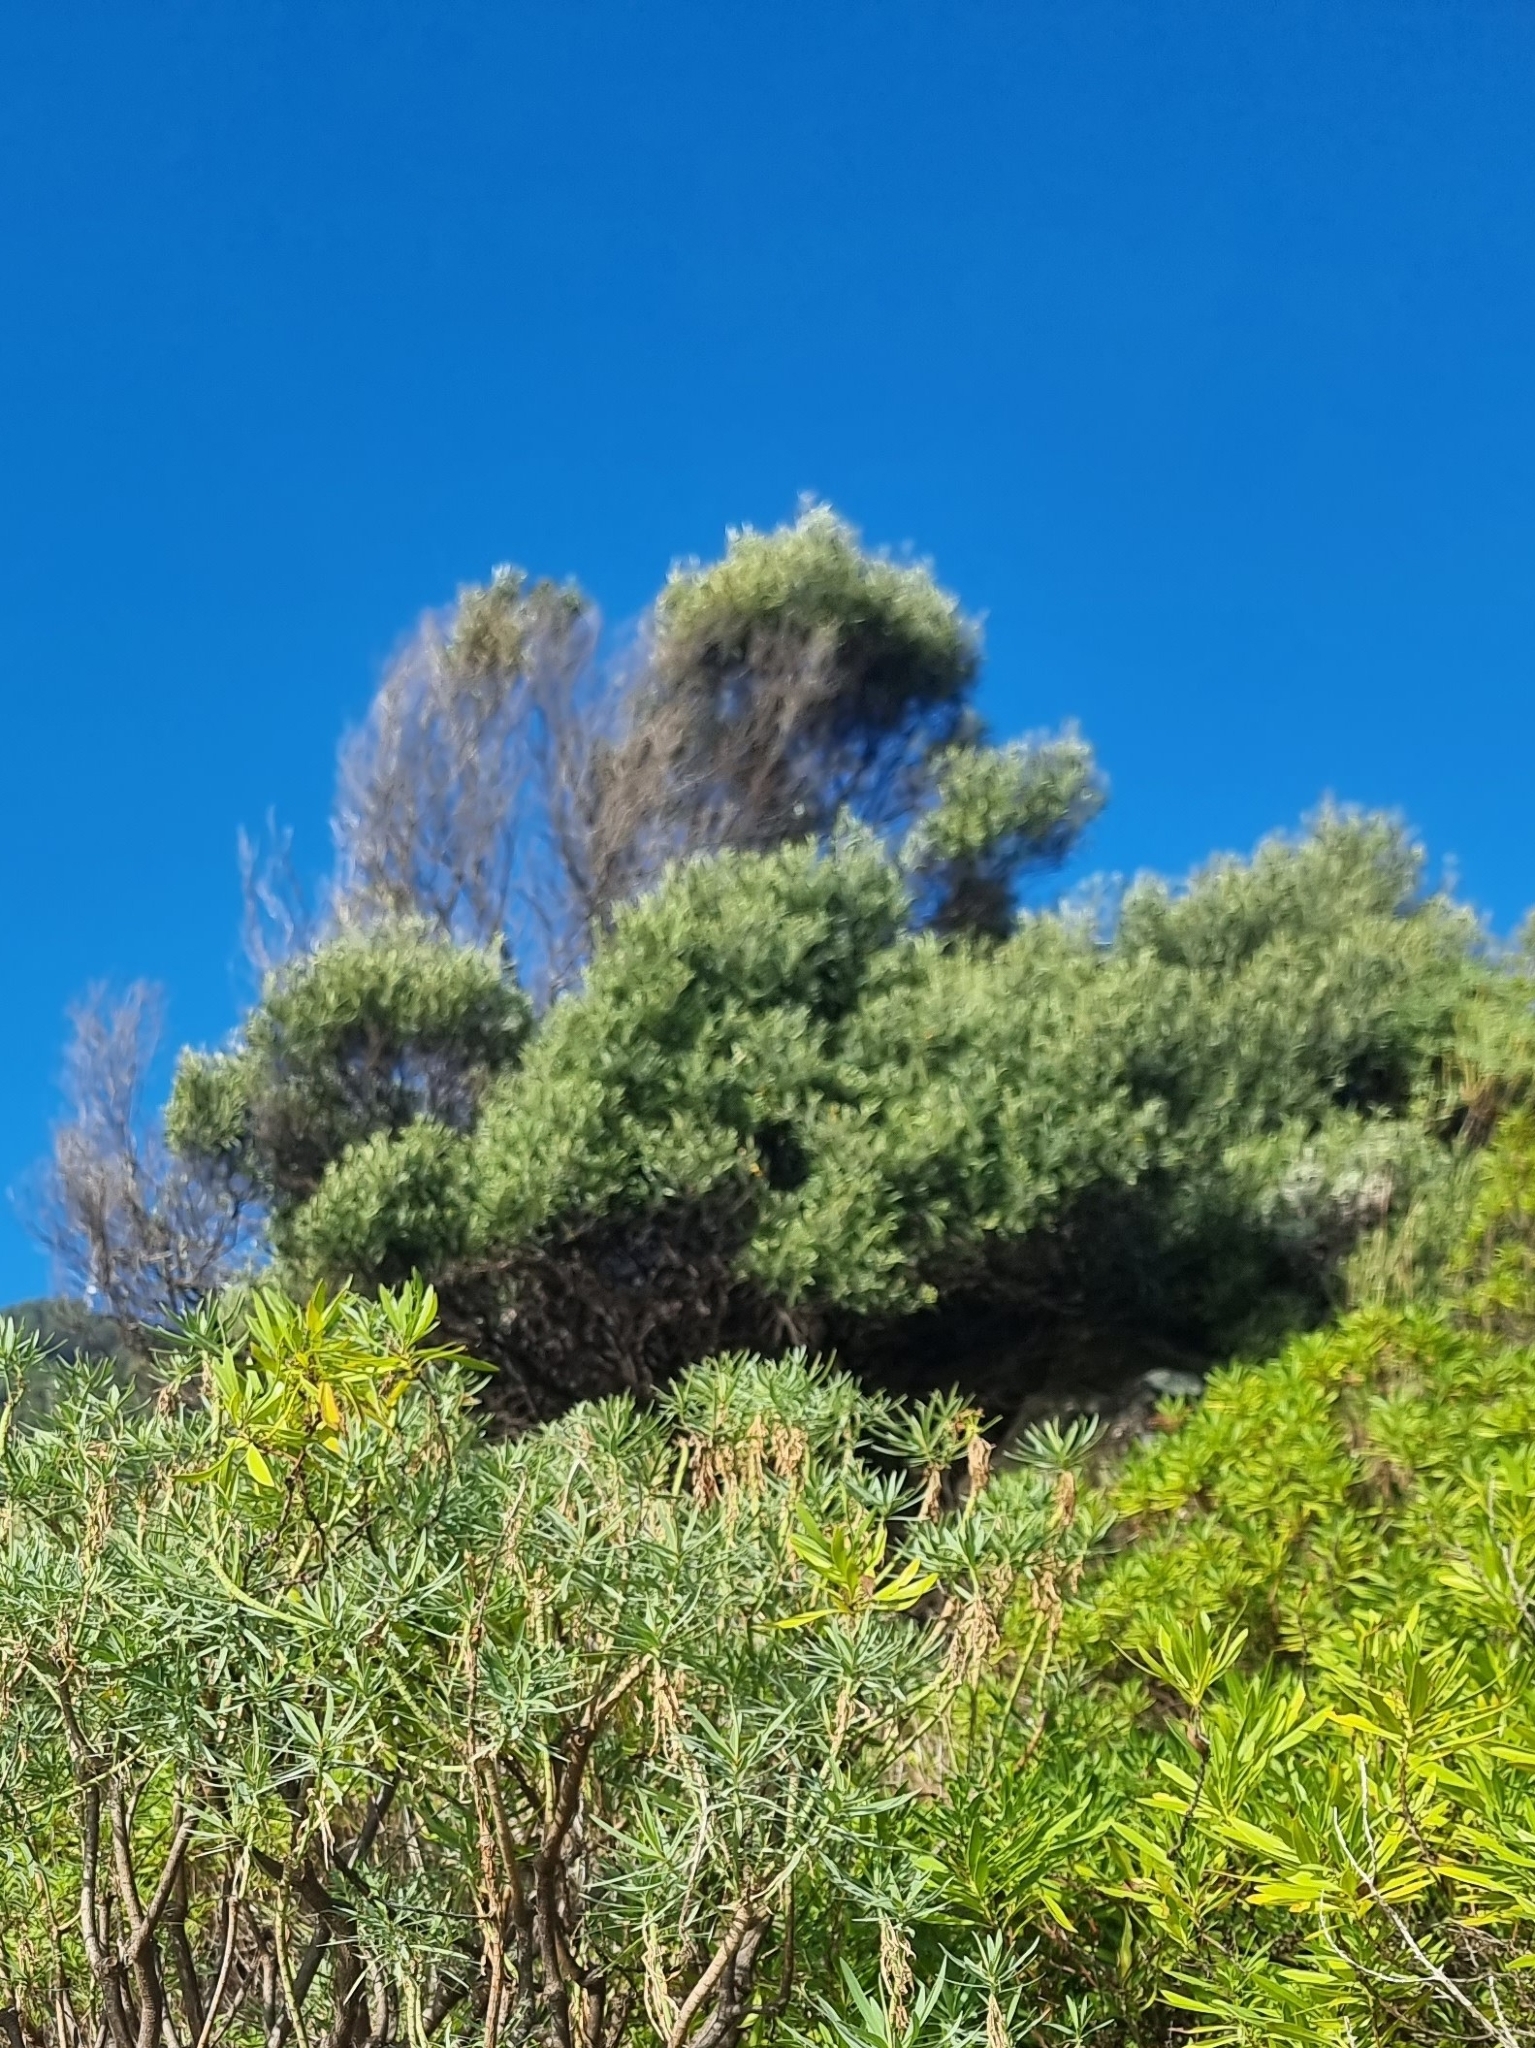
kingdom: Plantae
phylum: Tracheophyta
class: Magnoliopsida
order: Lamiales
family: Oleaceae
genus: Olea
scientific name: Olea europaea
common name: Olive
